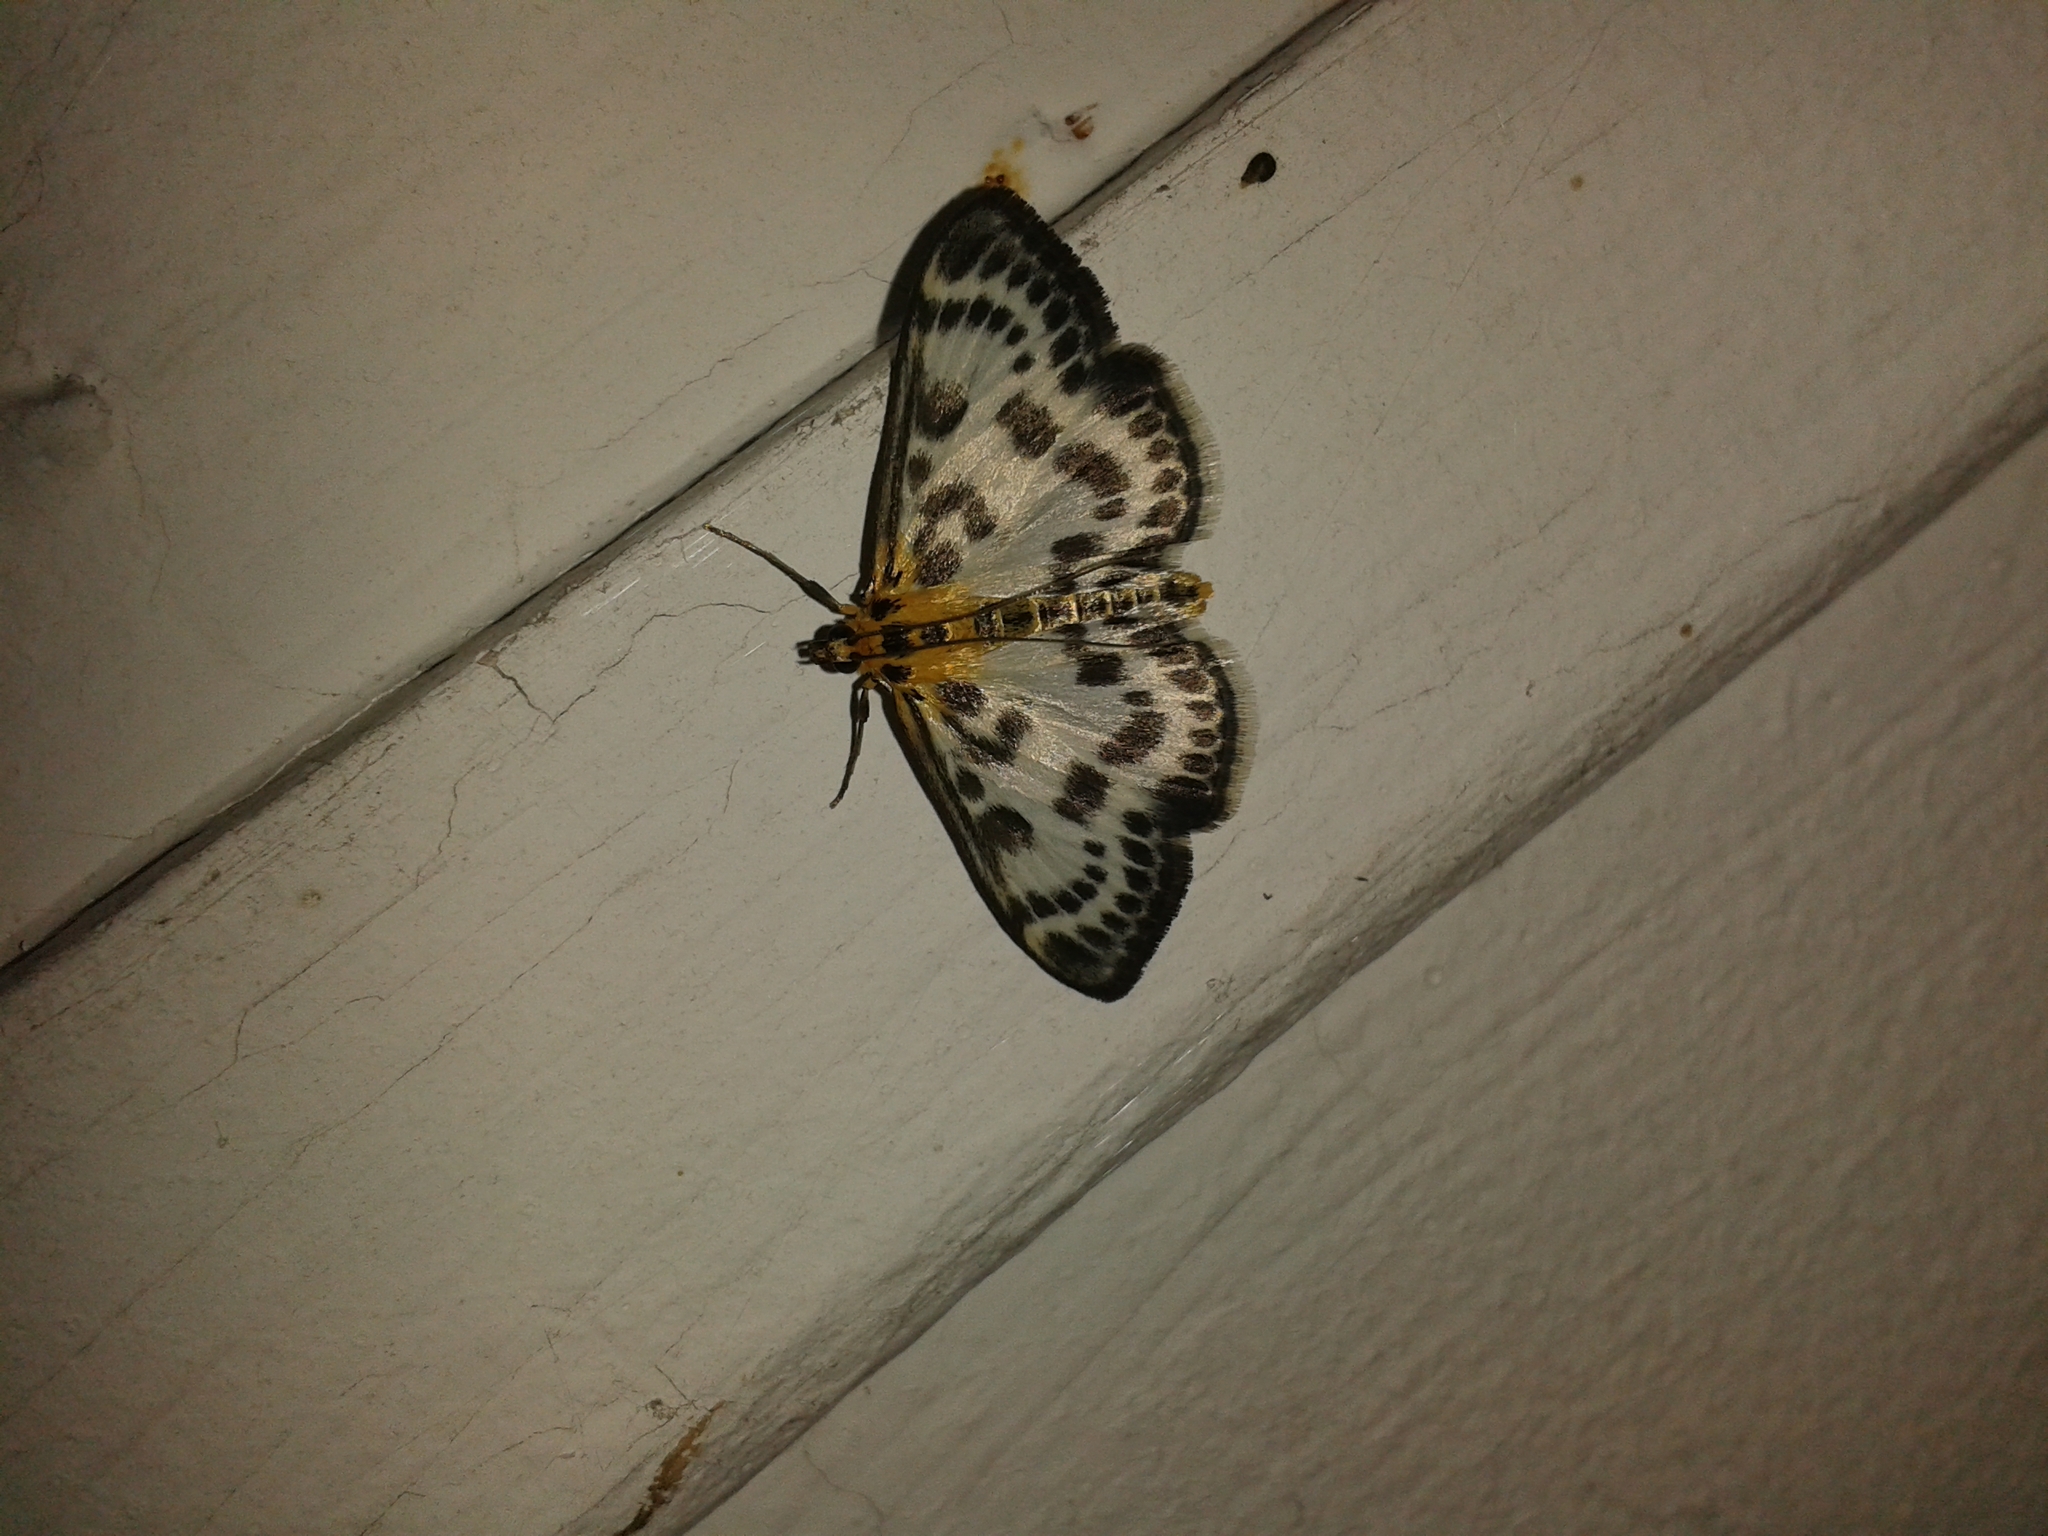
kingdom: Animalia
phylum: Arthropoda
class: Insecta
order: Lepidoptera
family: Crambidae
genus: Anania
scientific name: Anania hortulata
